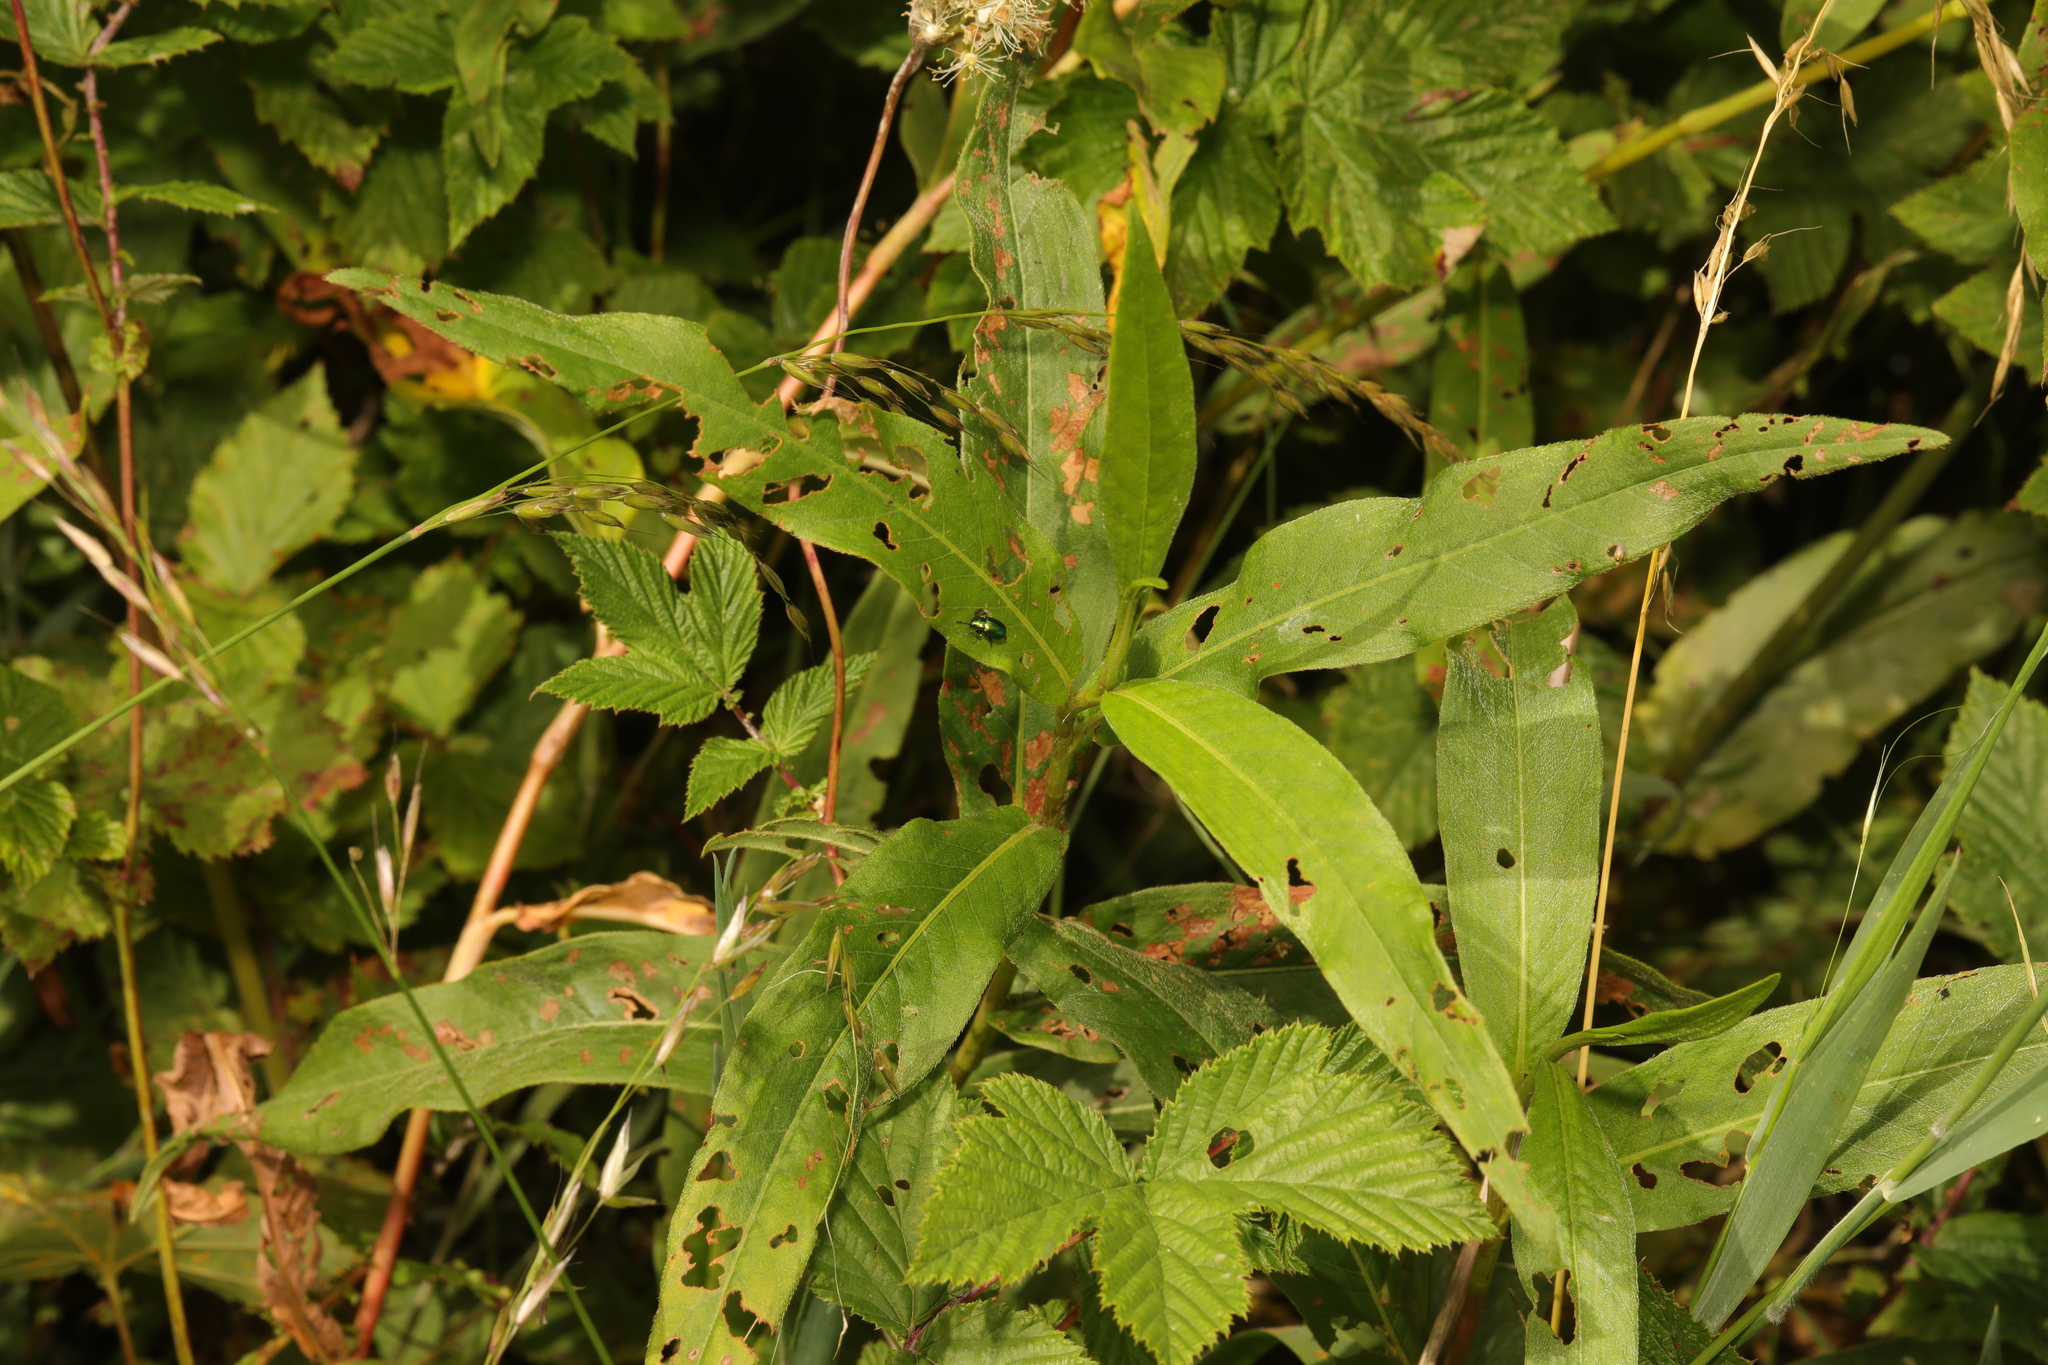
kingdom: Plantae
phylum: Tracheophyta
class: Magnoliopsida
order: Caryophyllales
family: Polygonaceae
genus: Persicaria
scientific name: Persicaria amphibia
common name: Amphibious bistort
